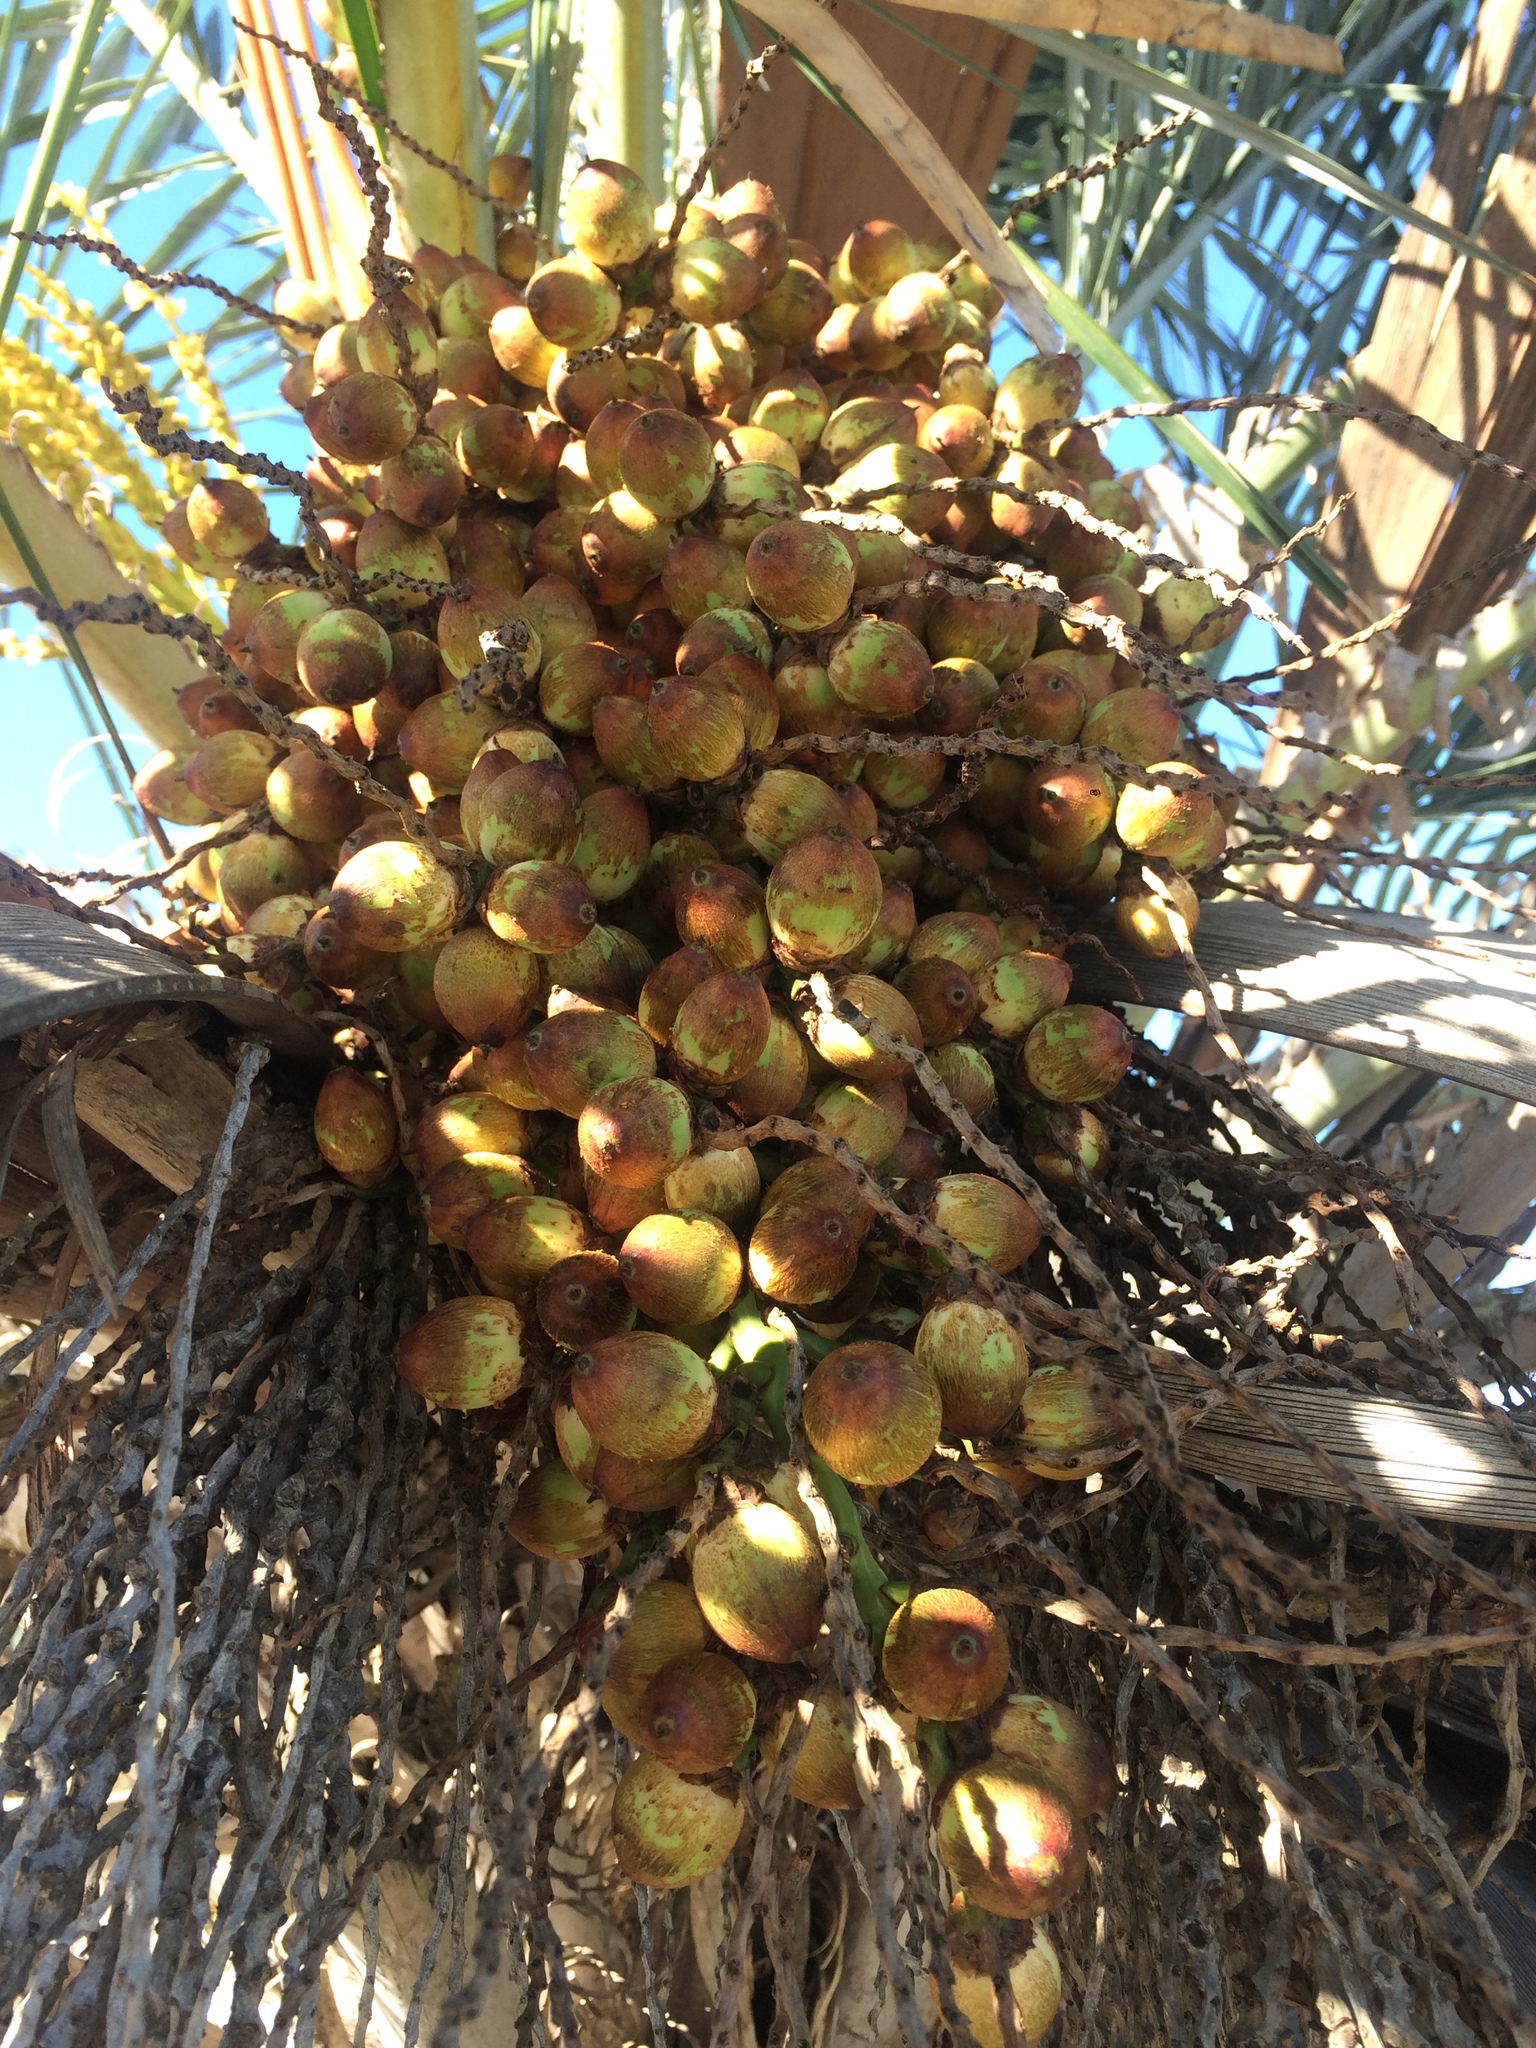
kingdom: Plantae
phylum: Tracheophyta
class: Liliopsida
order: Arecales
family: Arecaceae
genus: Syagrus
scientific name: Syagrus coronata
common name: Licuri palm
